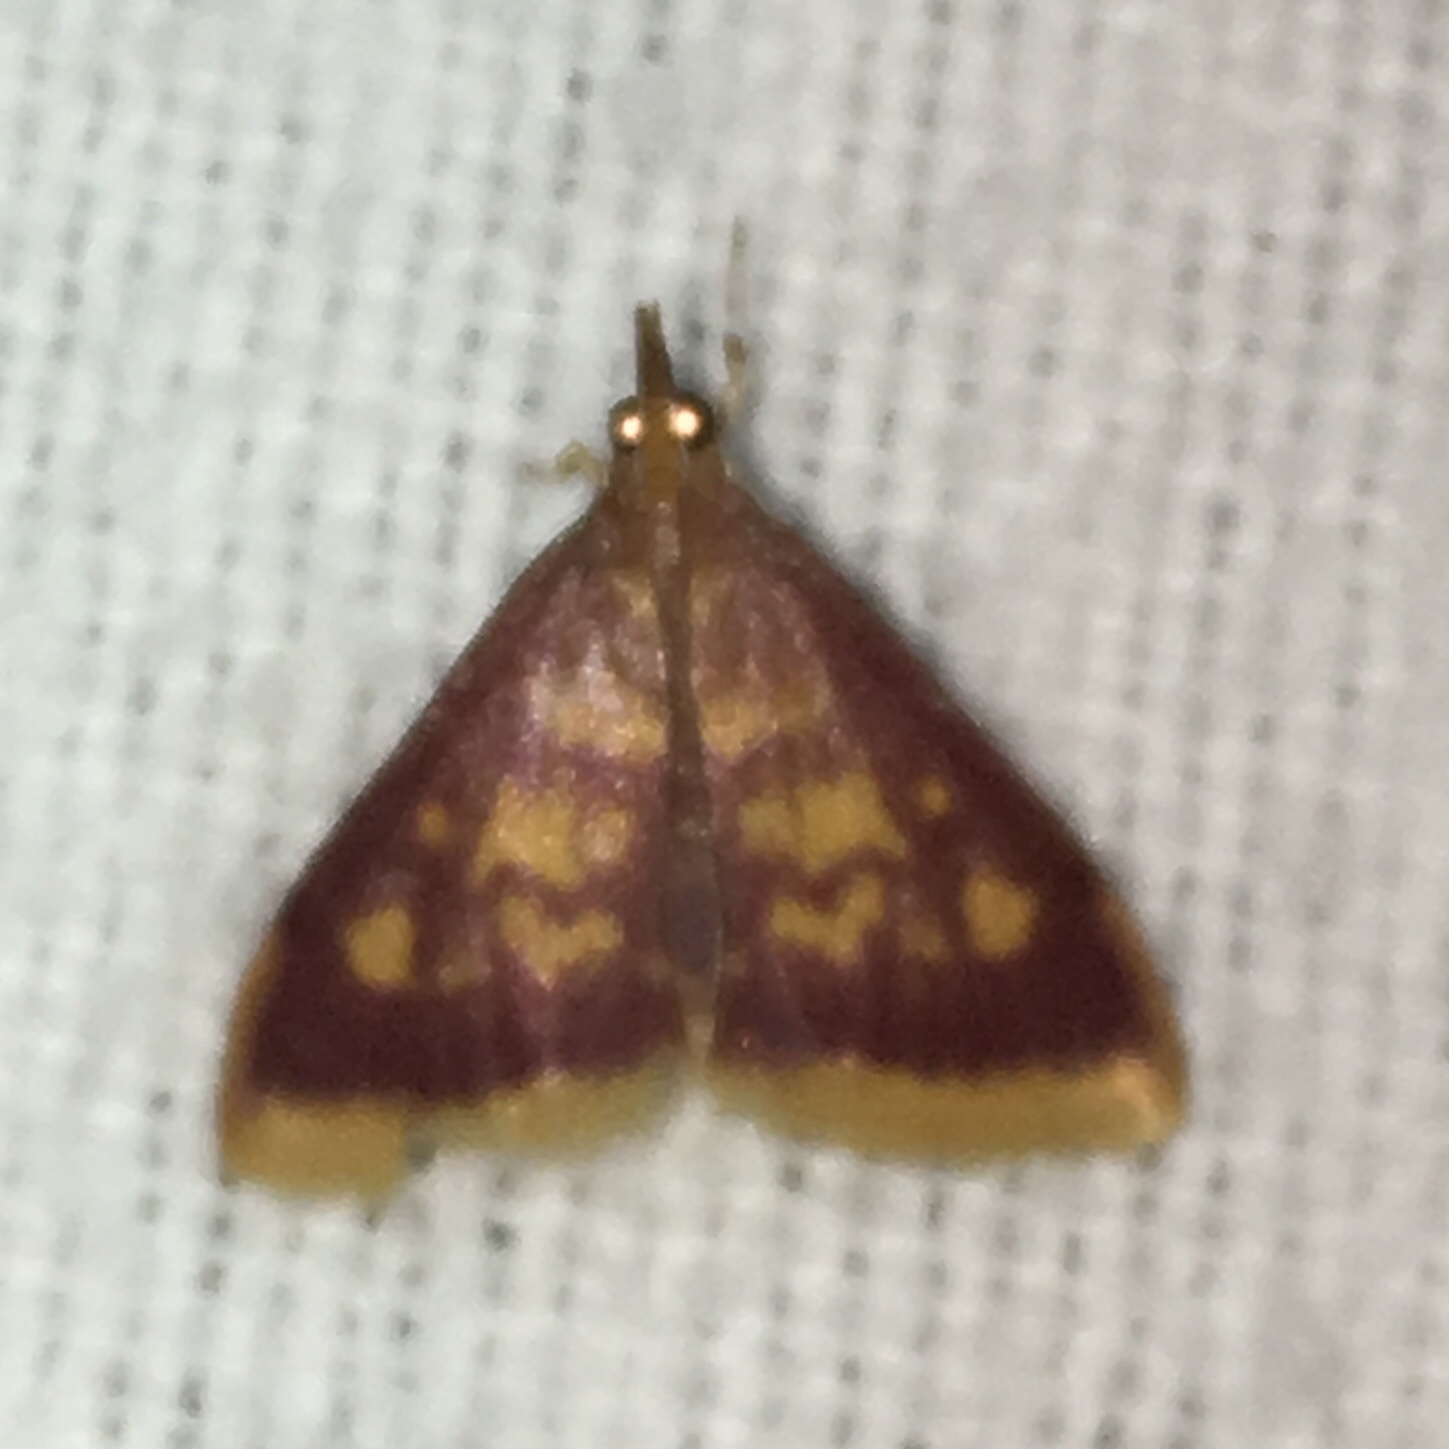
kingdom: Animalia
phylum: Arthropoda
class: Insecta
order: Lepidoptera
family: Crambidae
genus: Pyrausta
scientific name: Pyrausta acrionalis
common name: Mint-loving pyrausta moth
